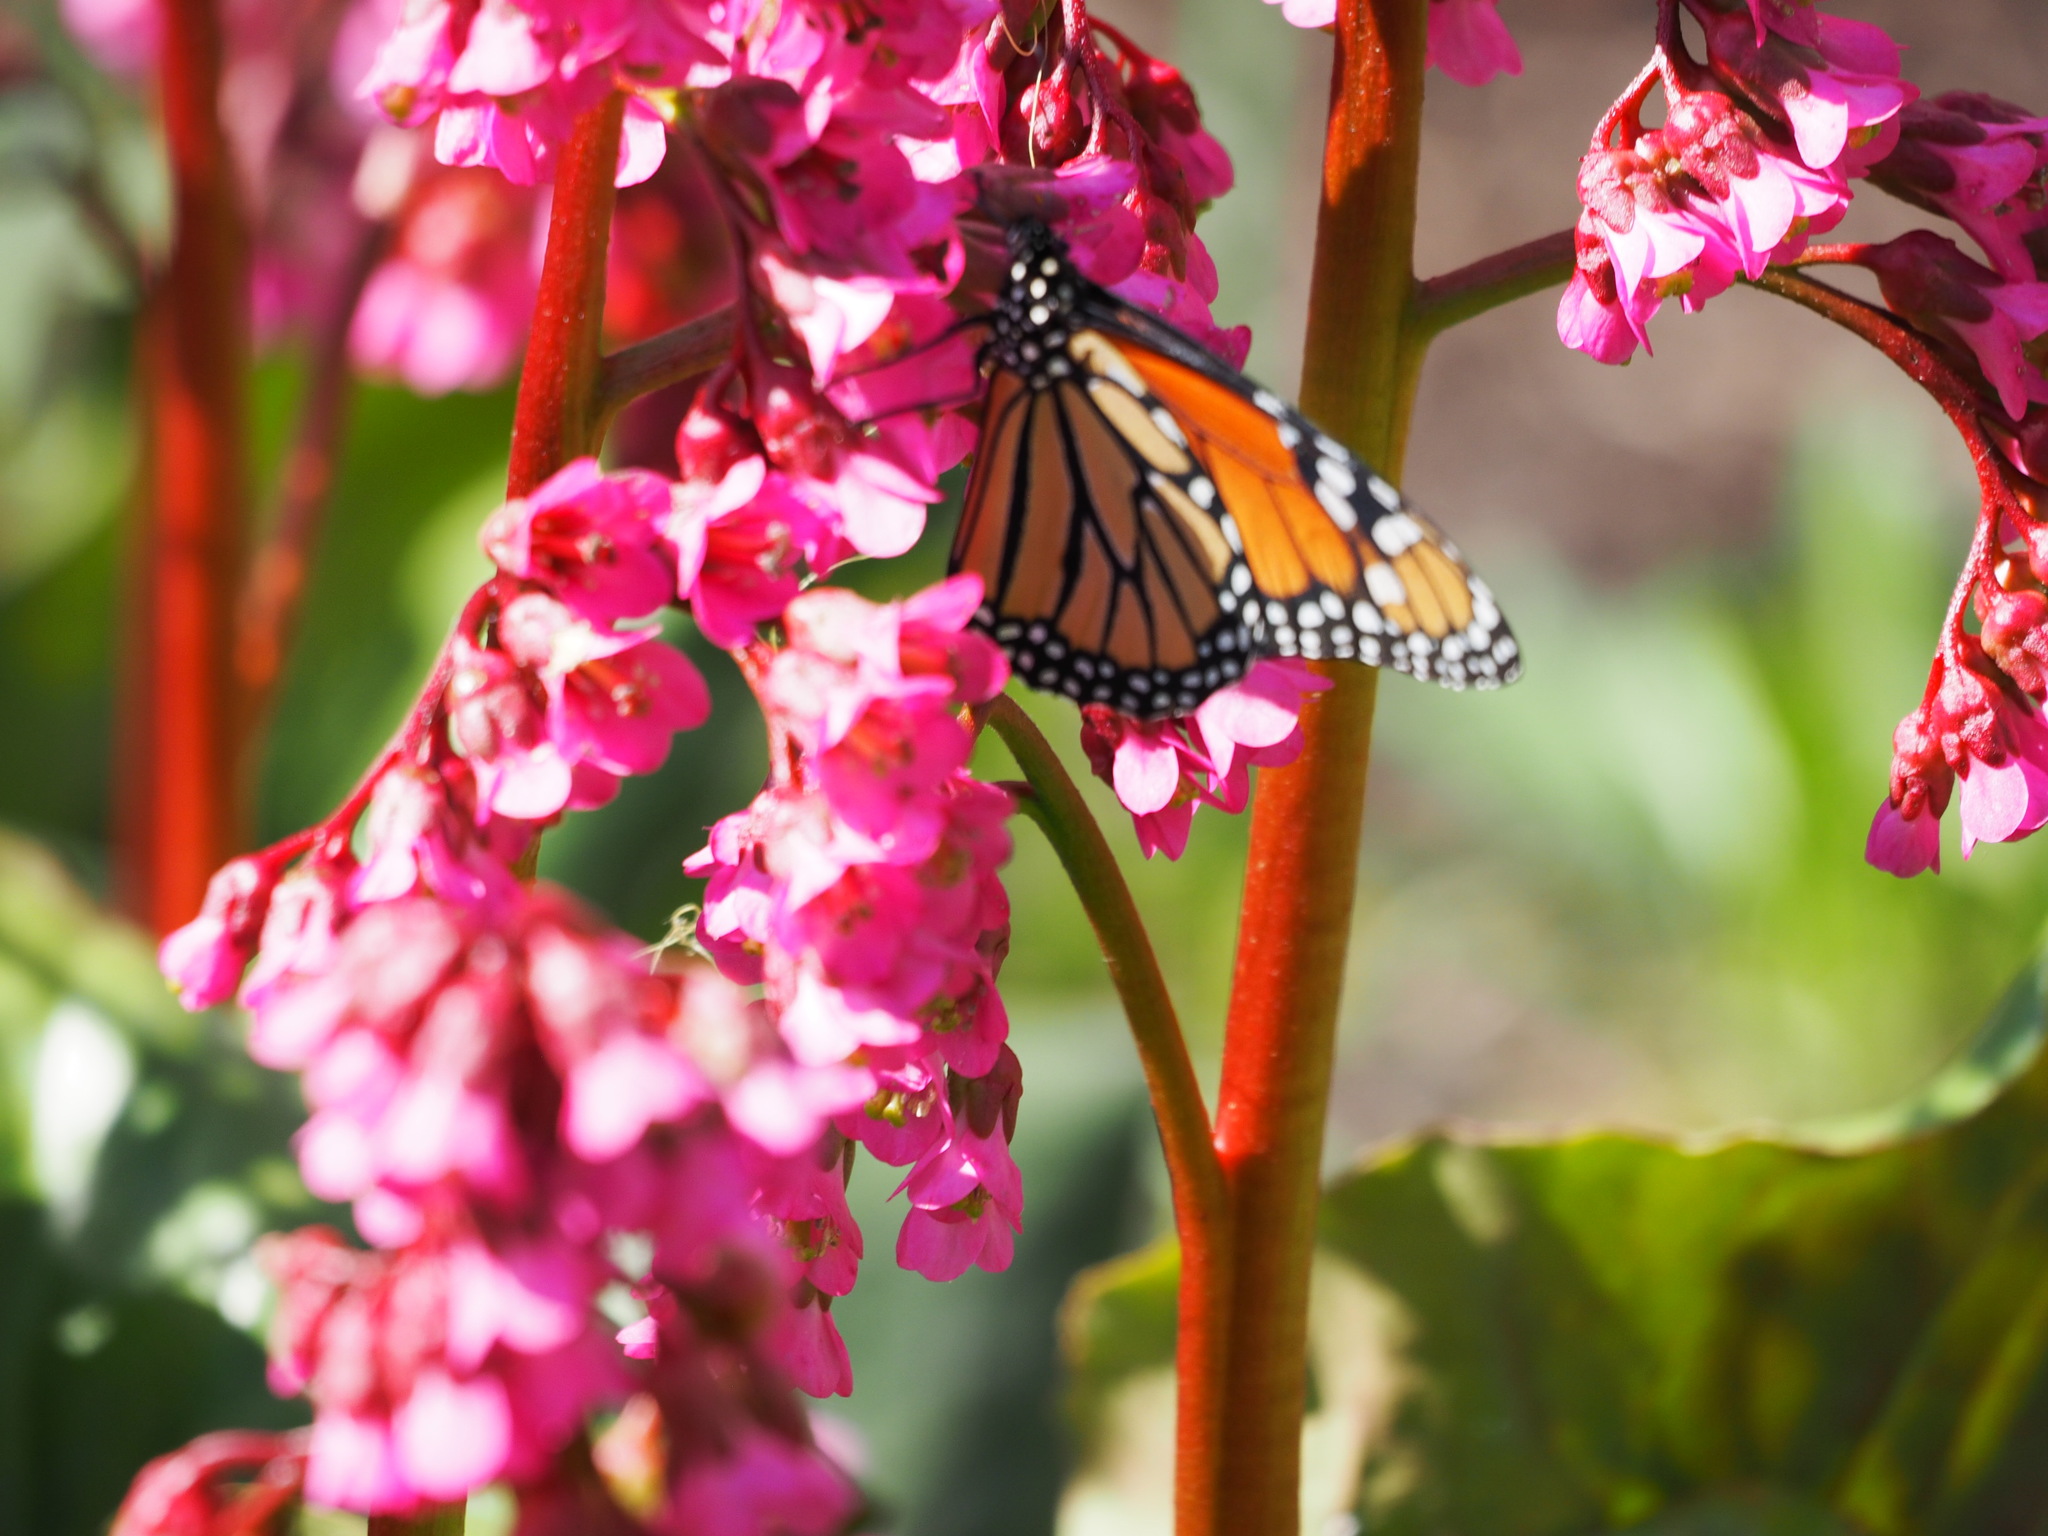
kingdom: Animalia
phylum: Arthropoda
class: Insecta
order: Lepidoptera
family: Nymphalidae
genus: Danaus
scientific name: Danaus plexippus
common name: Monarch
